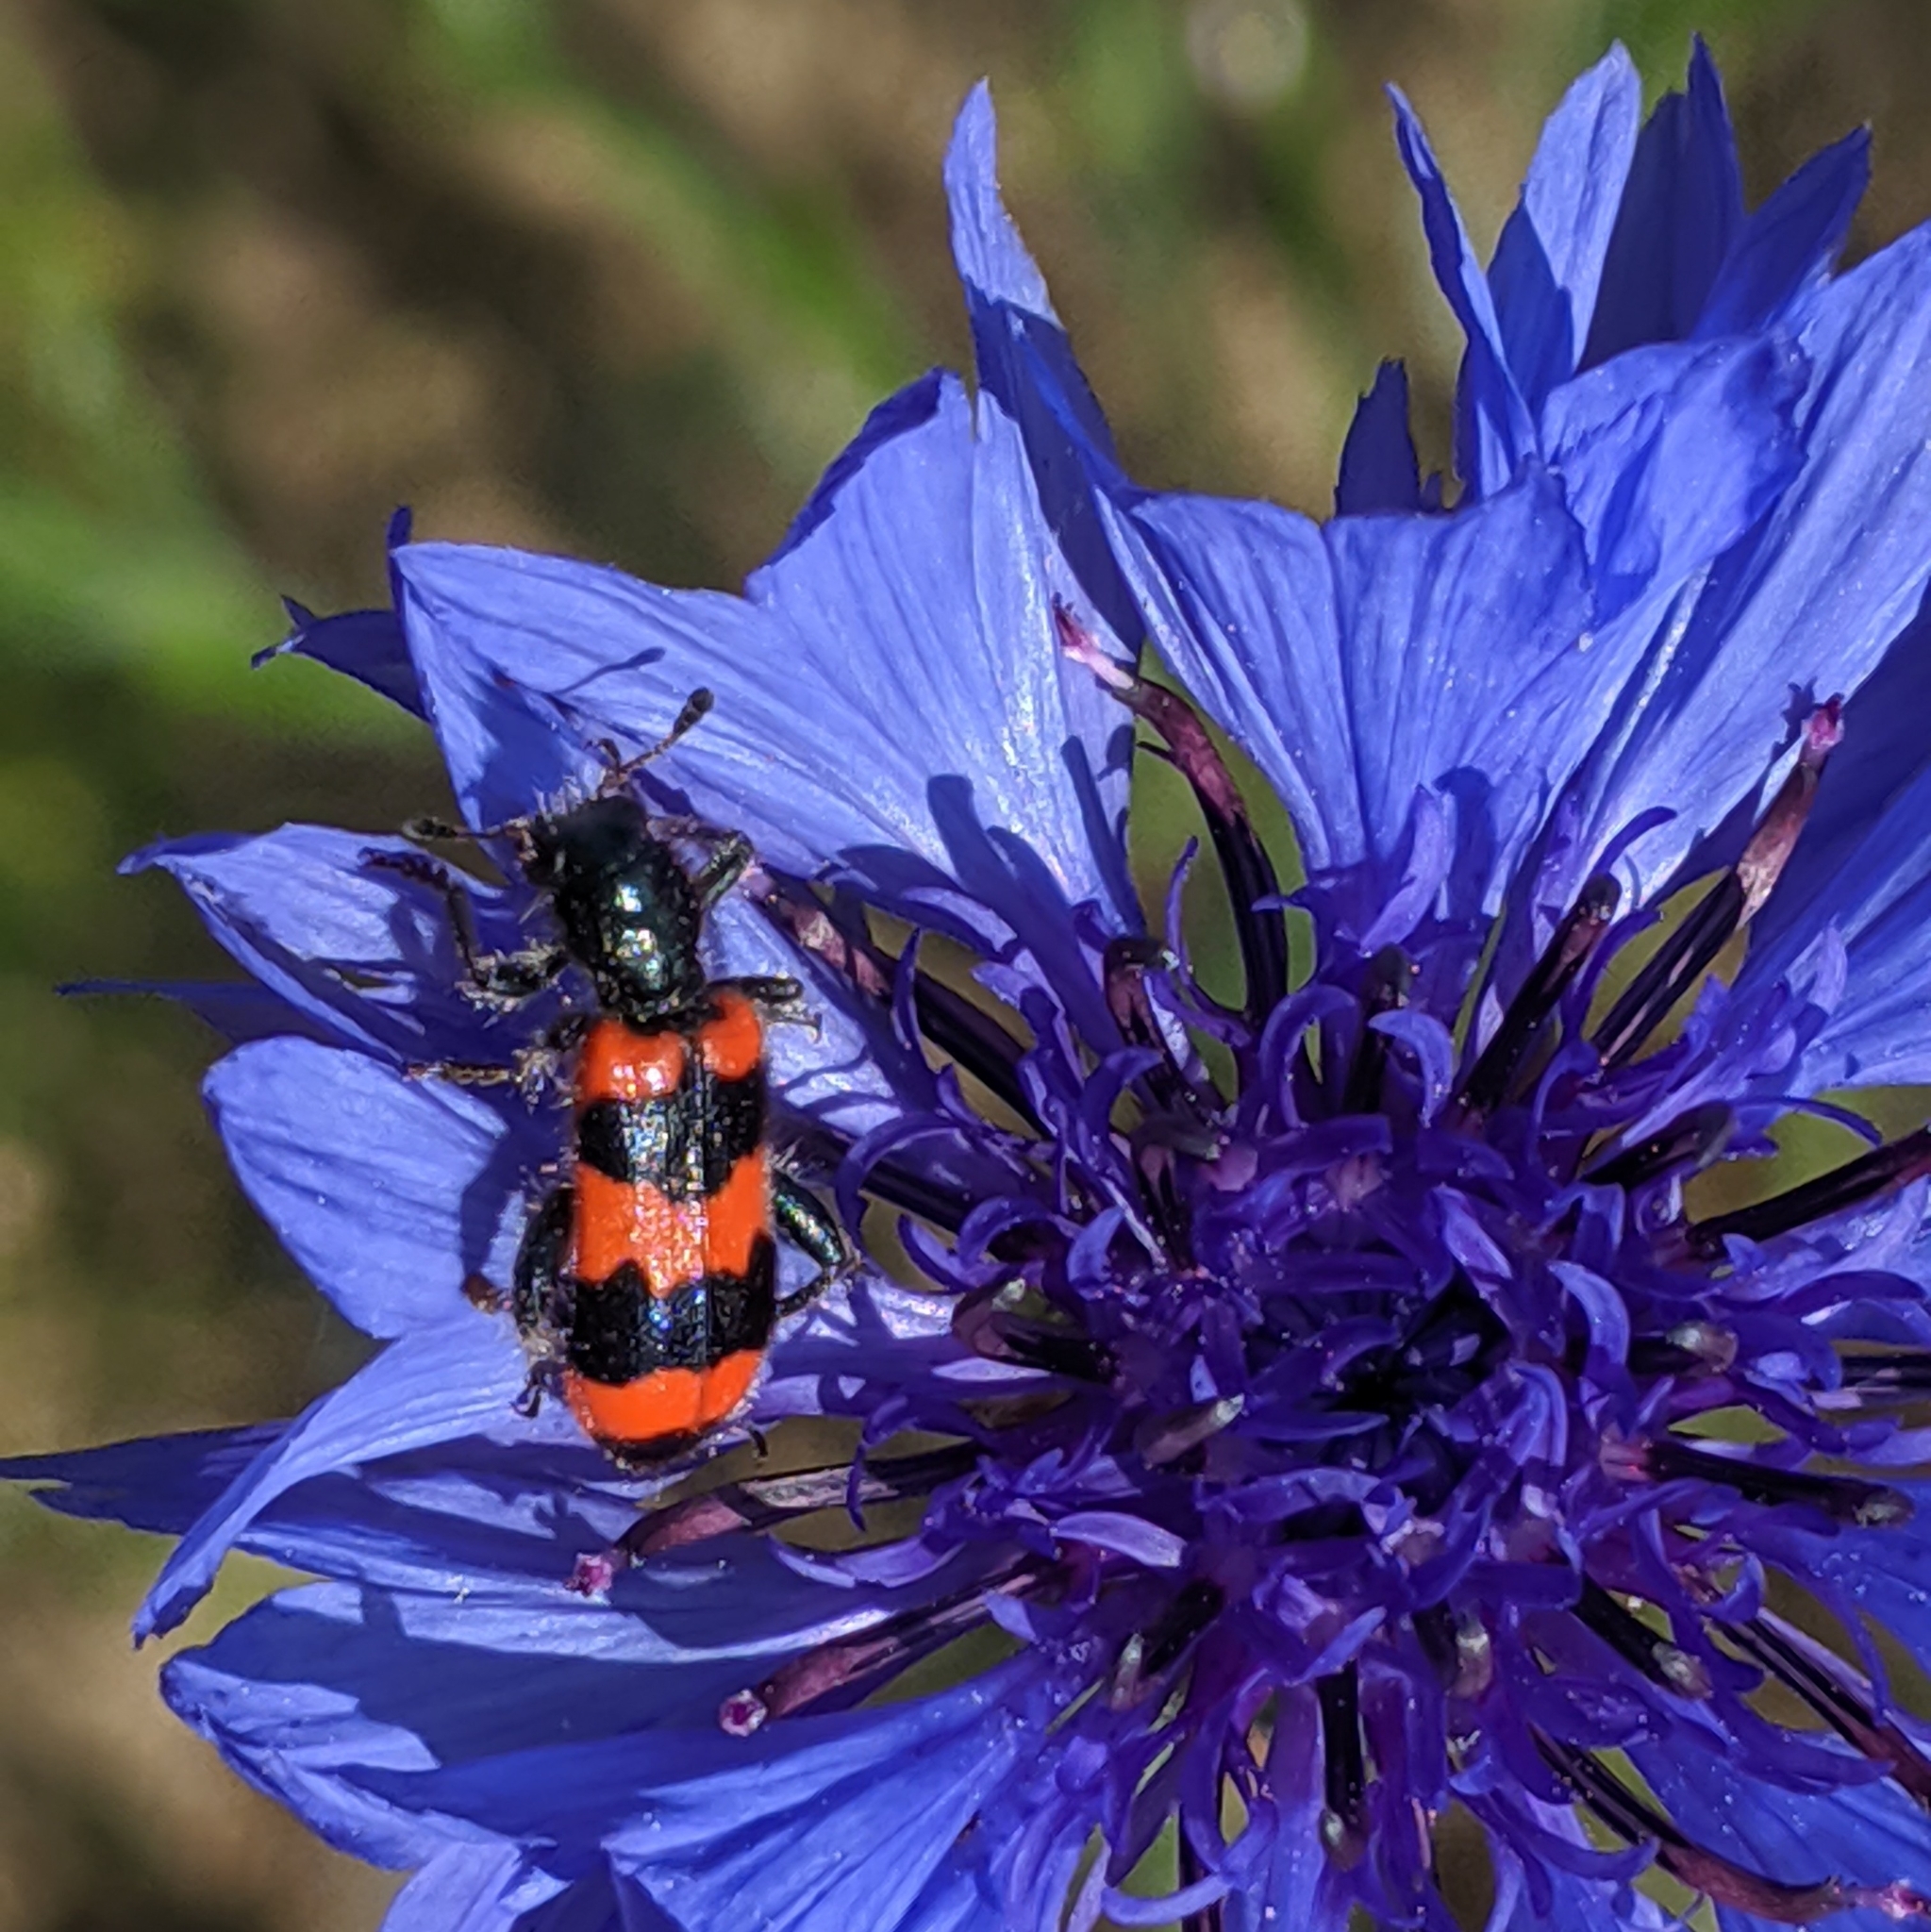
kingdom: Animalia
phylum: Arthropoda
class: Insecta
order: Coleoptera
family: Cleridae
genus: Trichodes
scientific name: Trichodes apiarius
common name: Bee-eating beetle
